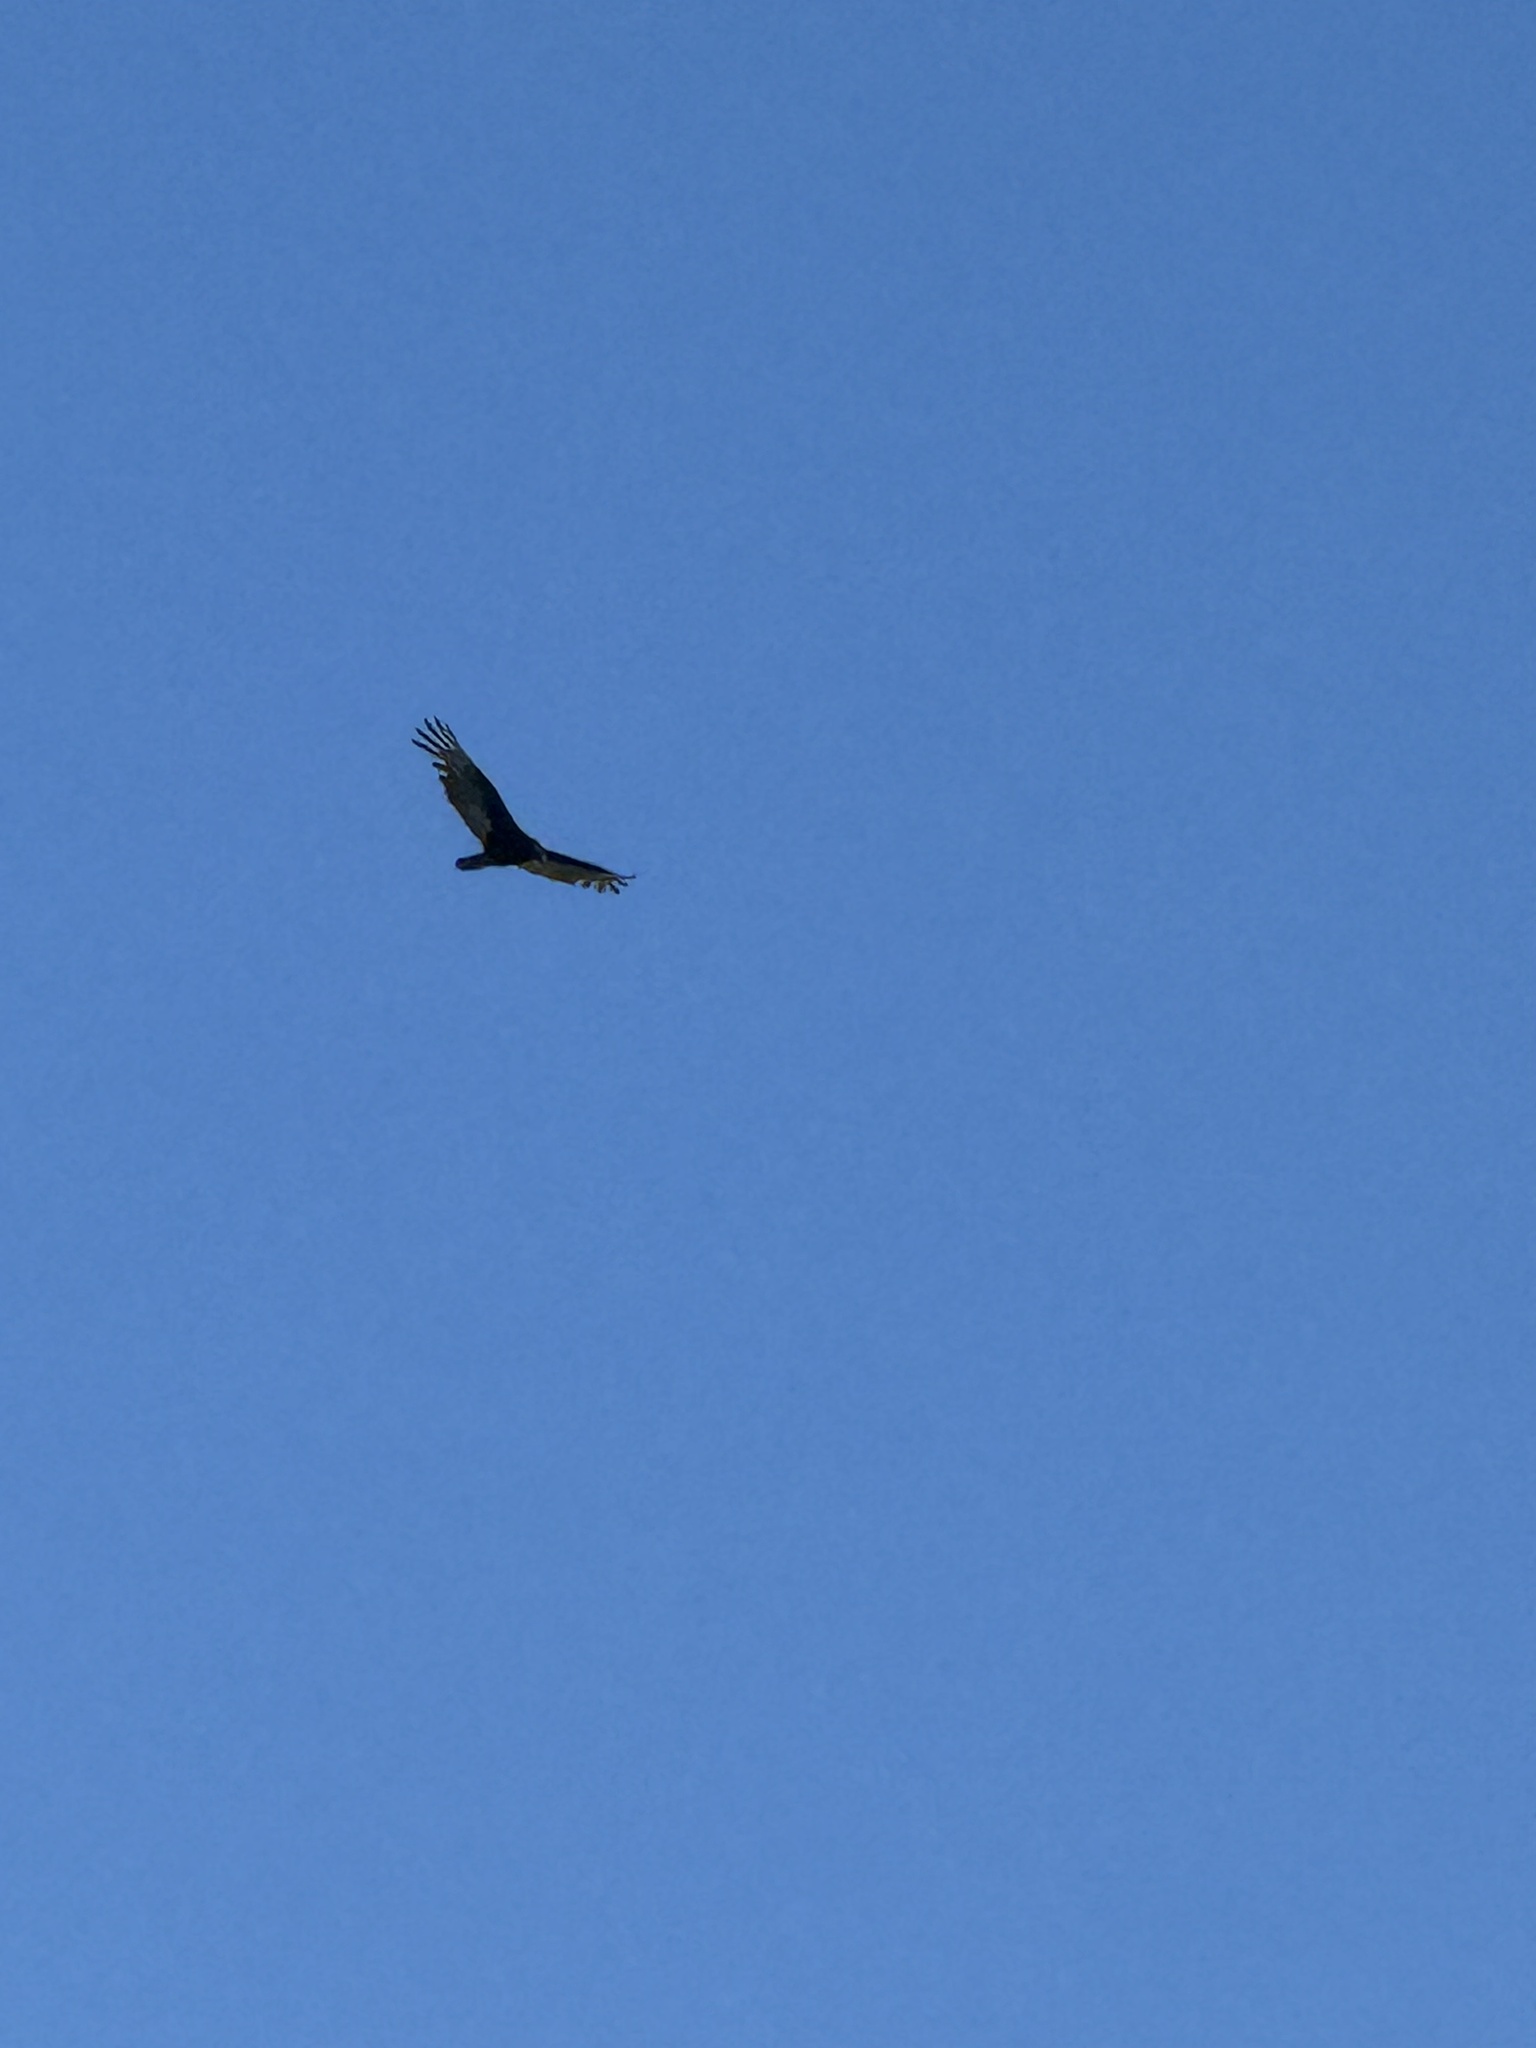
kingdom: Animalia
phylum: Chordata
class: Aves
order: Accipitriformes
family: Cathartidae
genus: Cathartes
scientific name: Cathartes aura
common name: Turkey vulture
